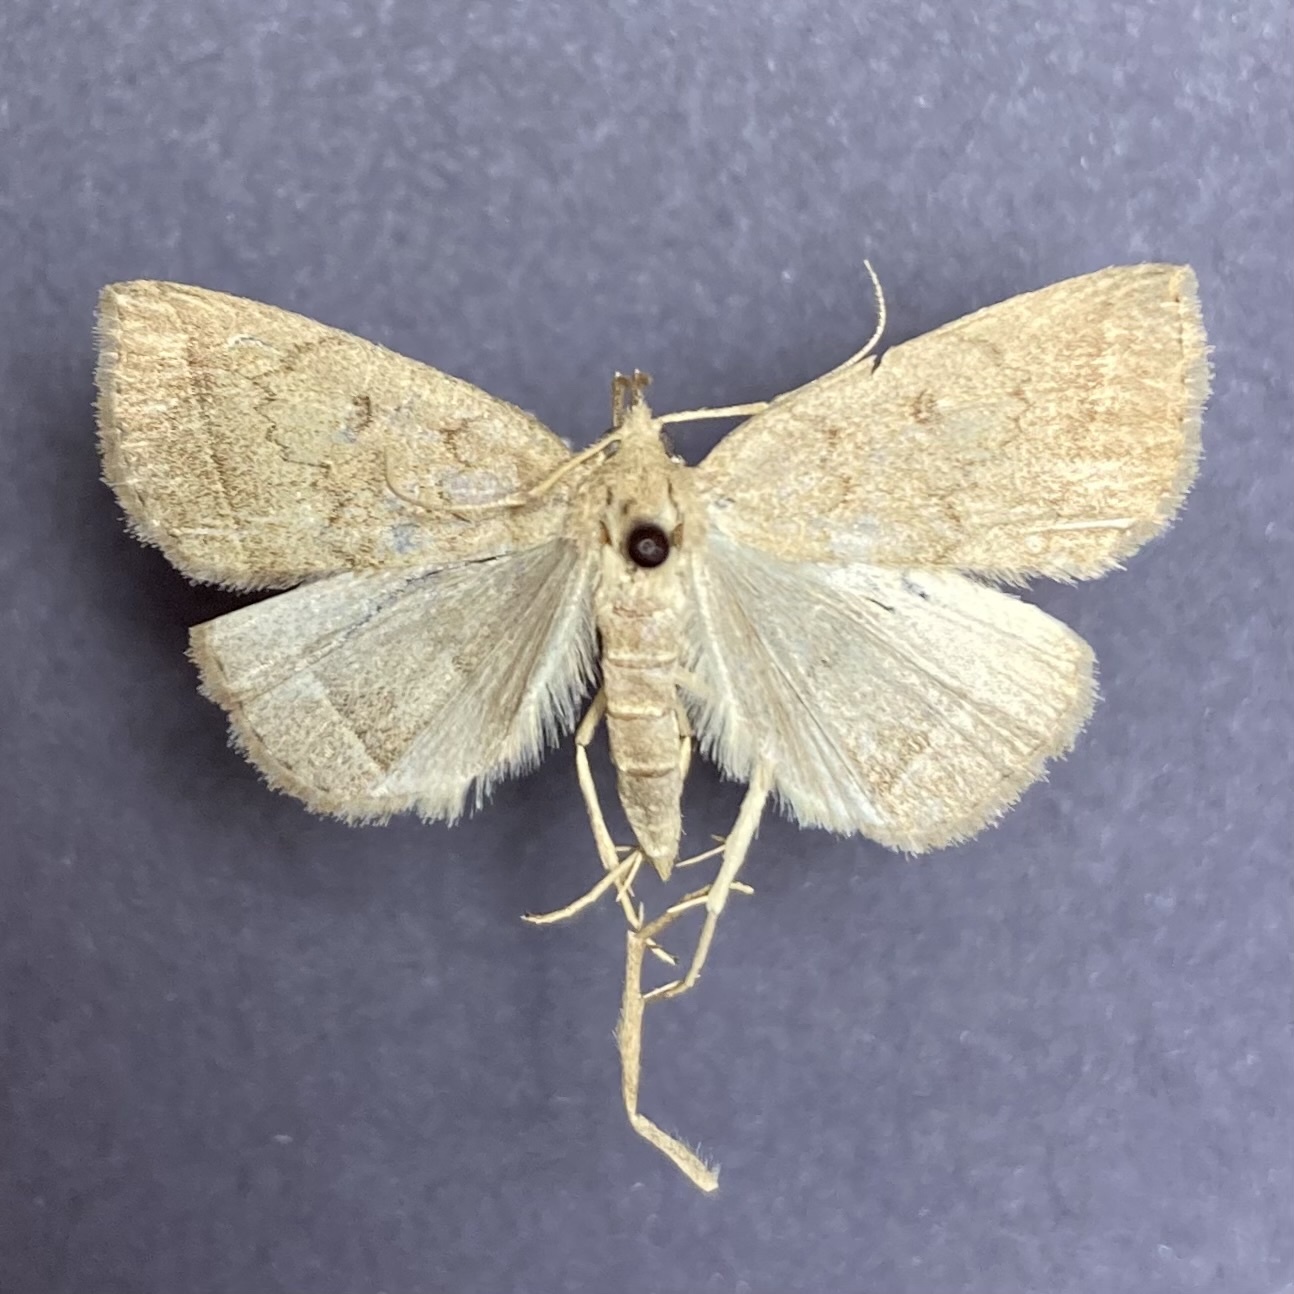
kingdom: Animalia
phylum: Arthropoda
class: Insecta
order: Lepidoptera
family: Erebidae
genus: Zanclognatha
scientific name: Zanclognatha jacchusalis
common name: Yellowish zanclognatha
